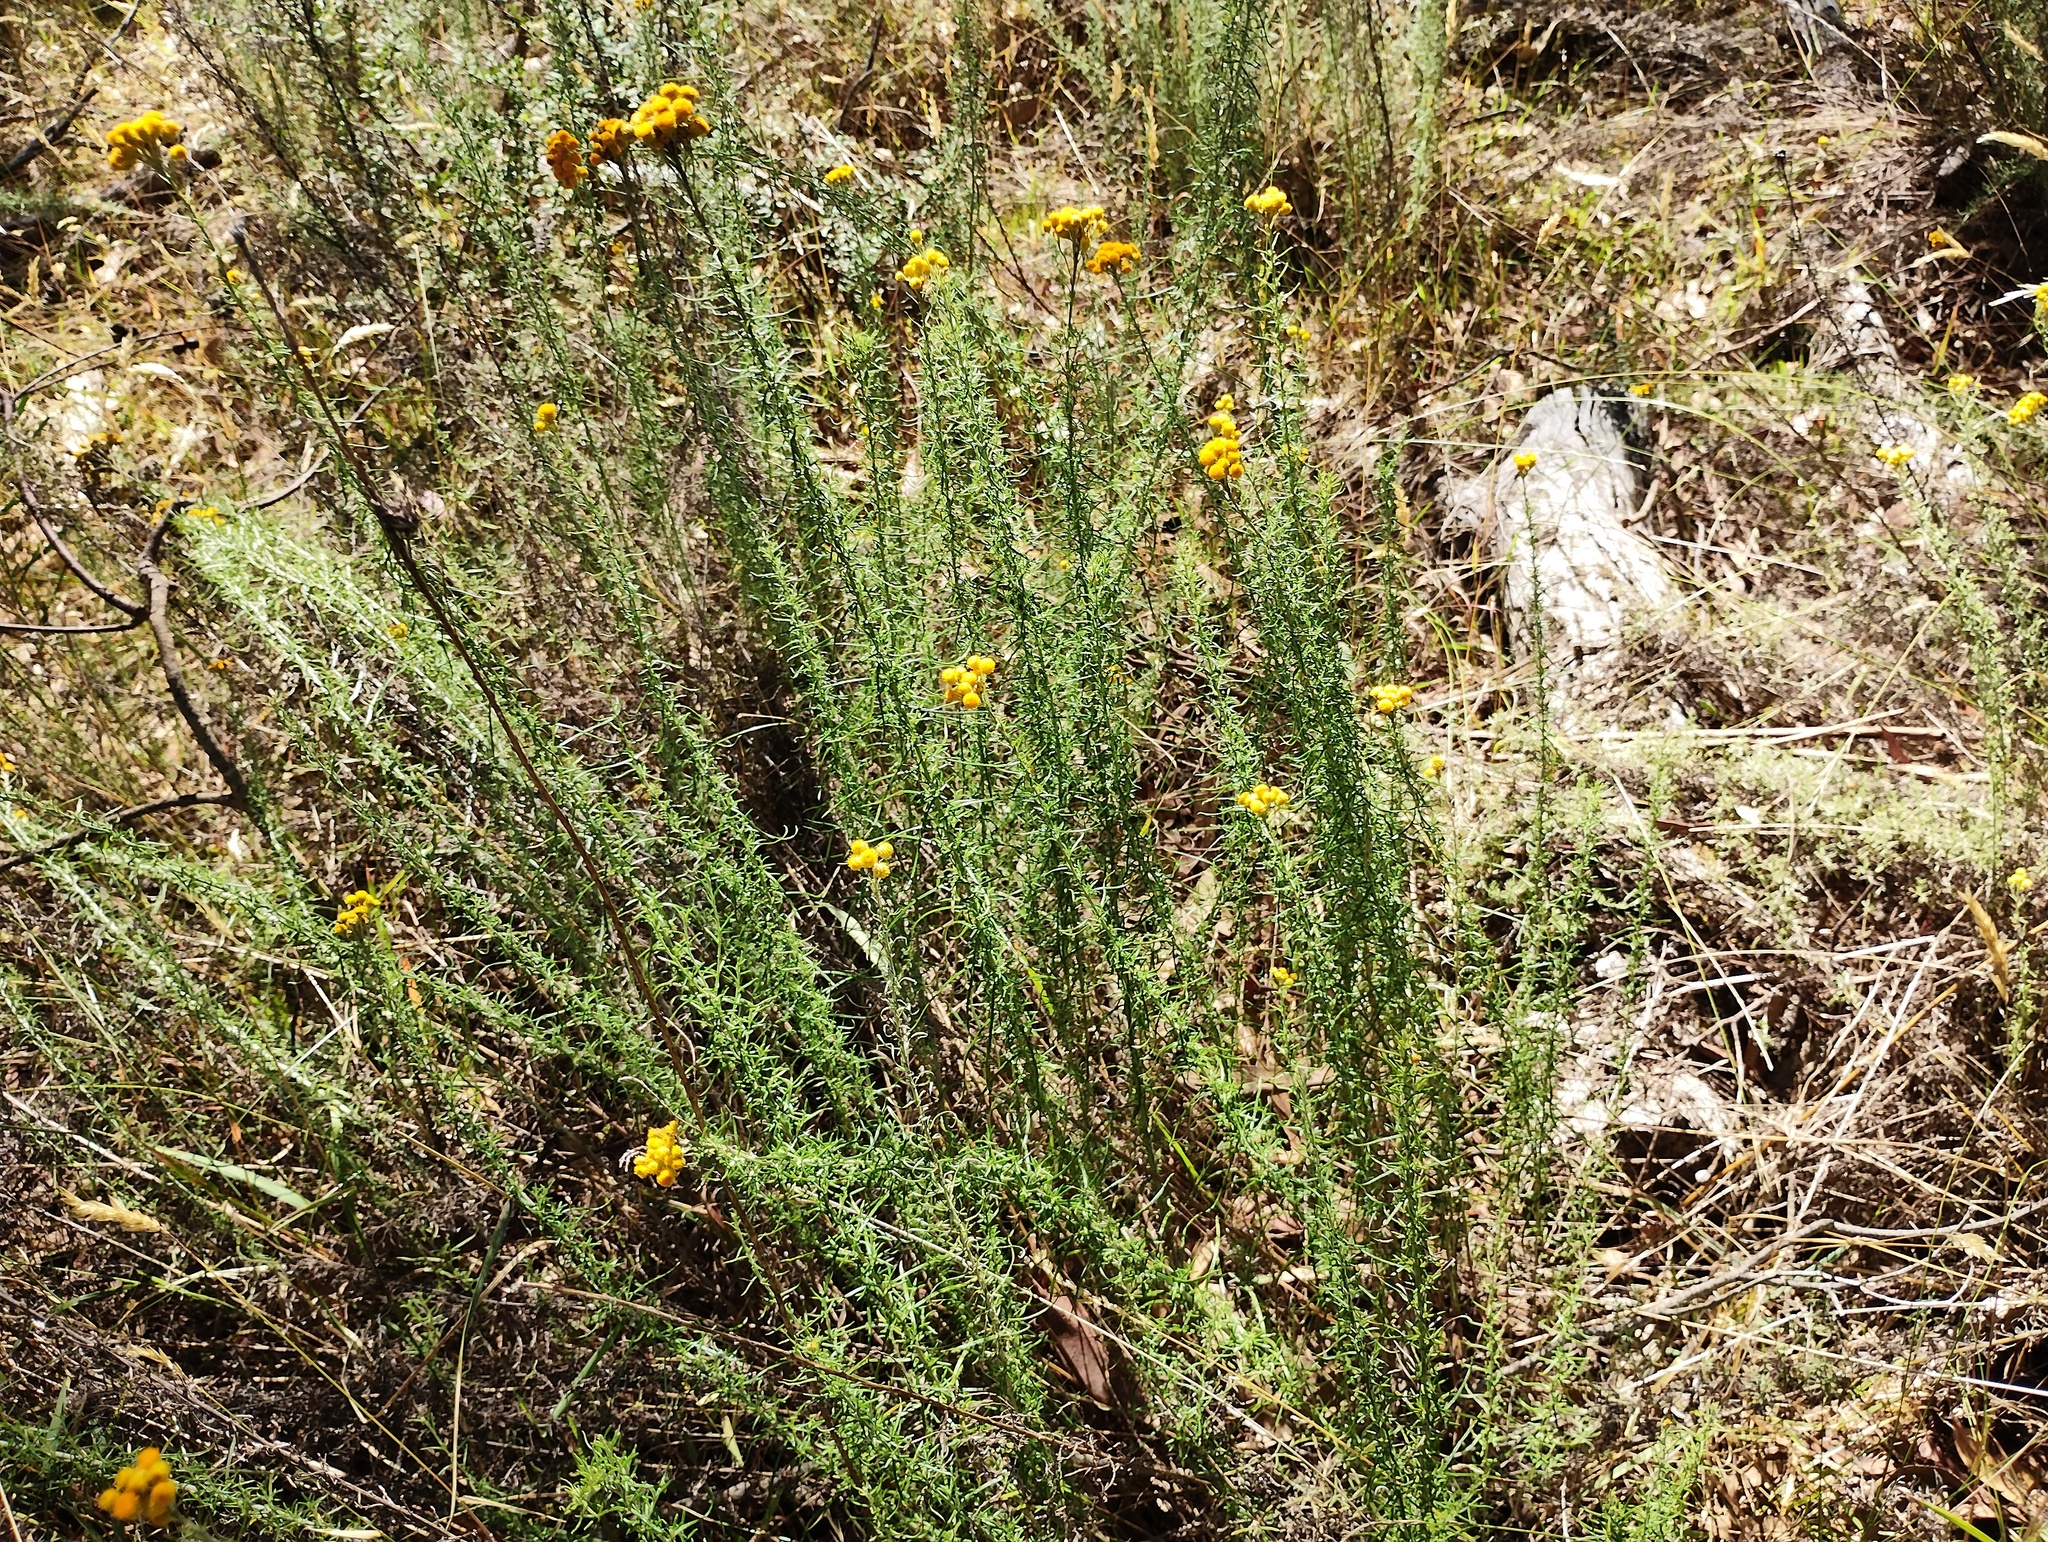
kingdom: Plantae
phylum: Tracheophyta
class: Magnoliopsida
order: Asterales
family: Asteraceae
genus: Chrysocephalum
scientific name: Chrysocephalum semipapposum
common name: Clustered everlasting
